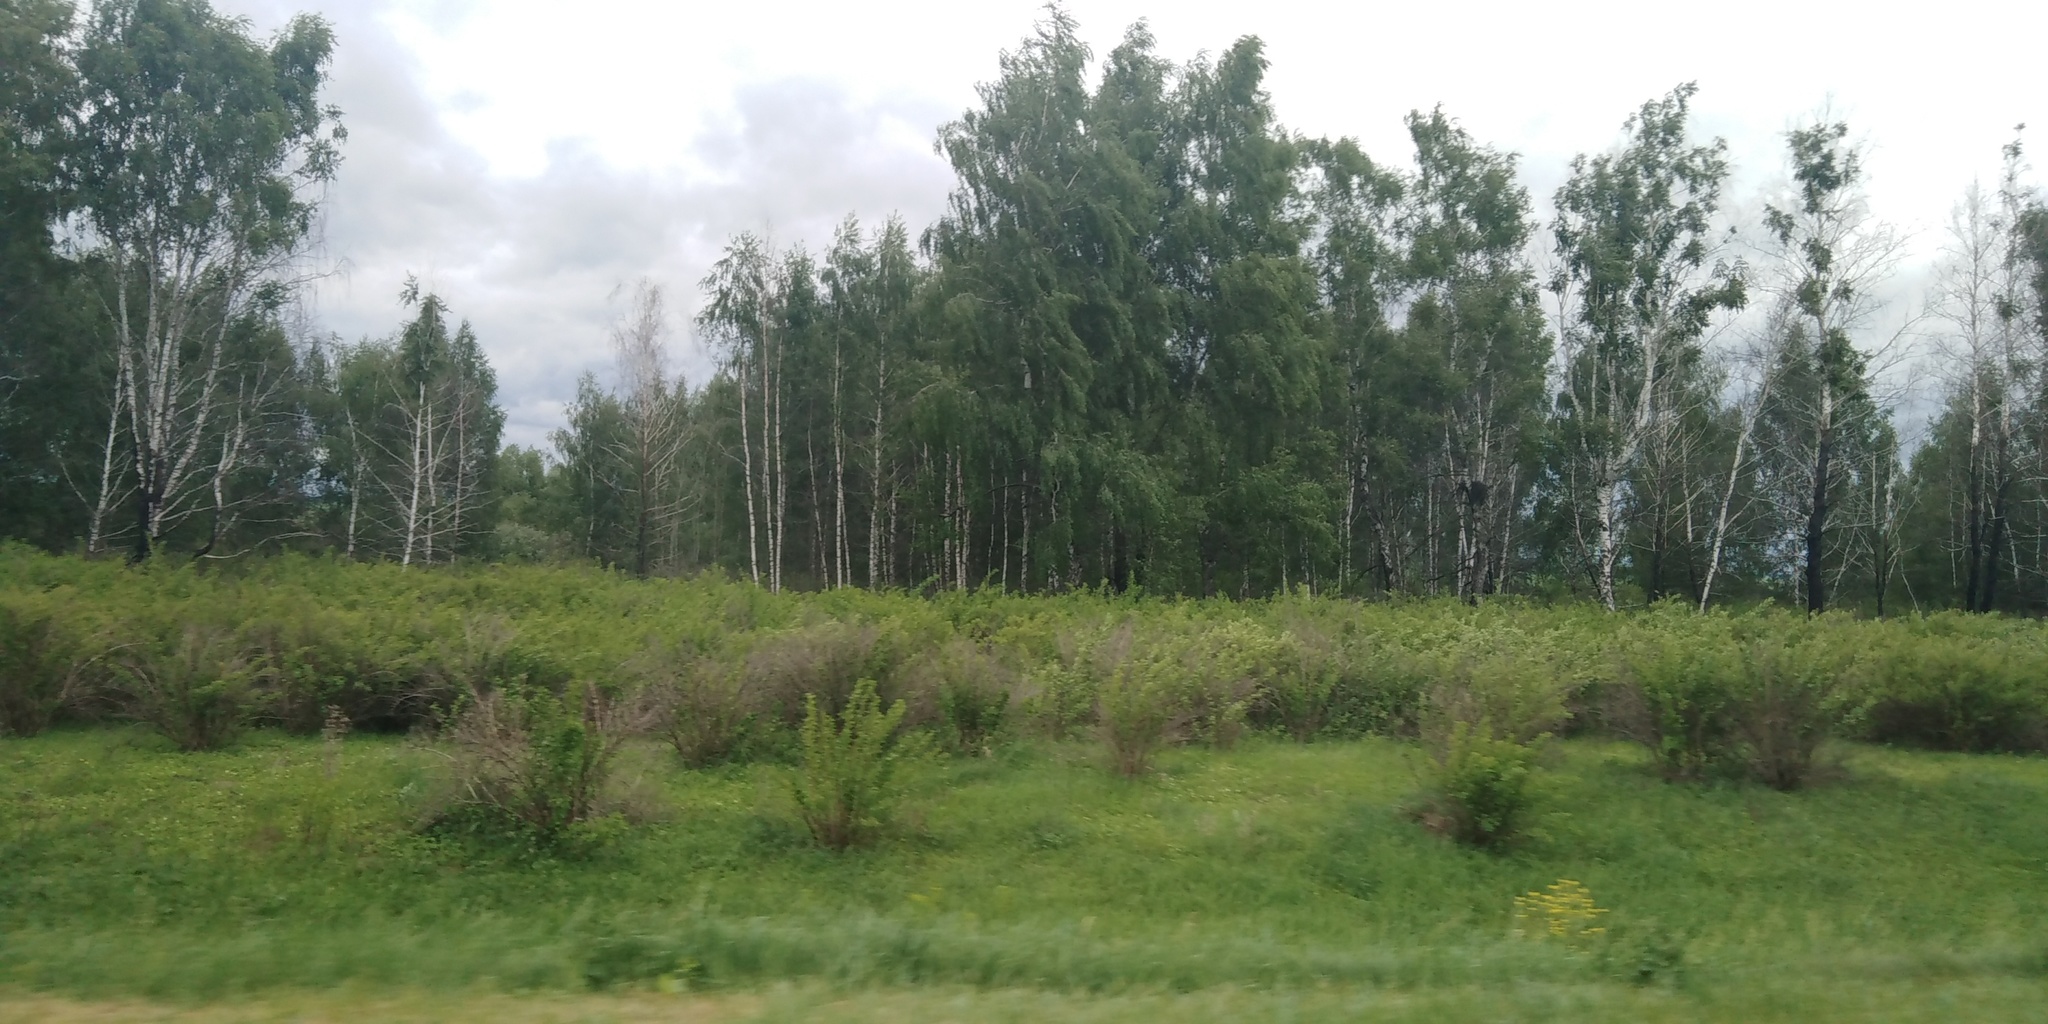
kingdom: Plantae
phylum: Tracheophyta
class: Magnoliopsida
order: Fagales
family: Betulaceae
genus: Betula
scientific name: Betula pendula
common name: Silver birch
